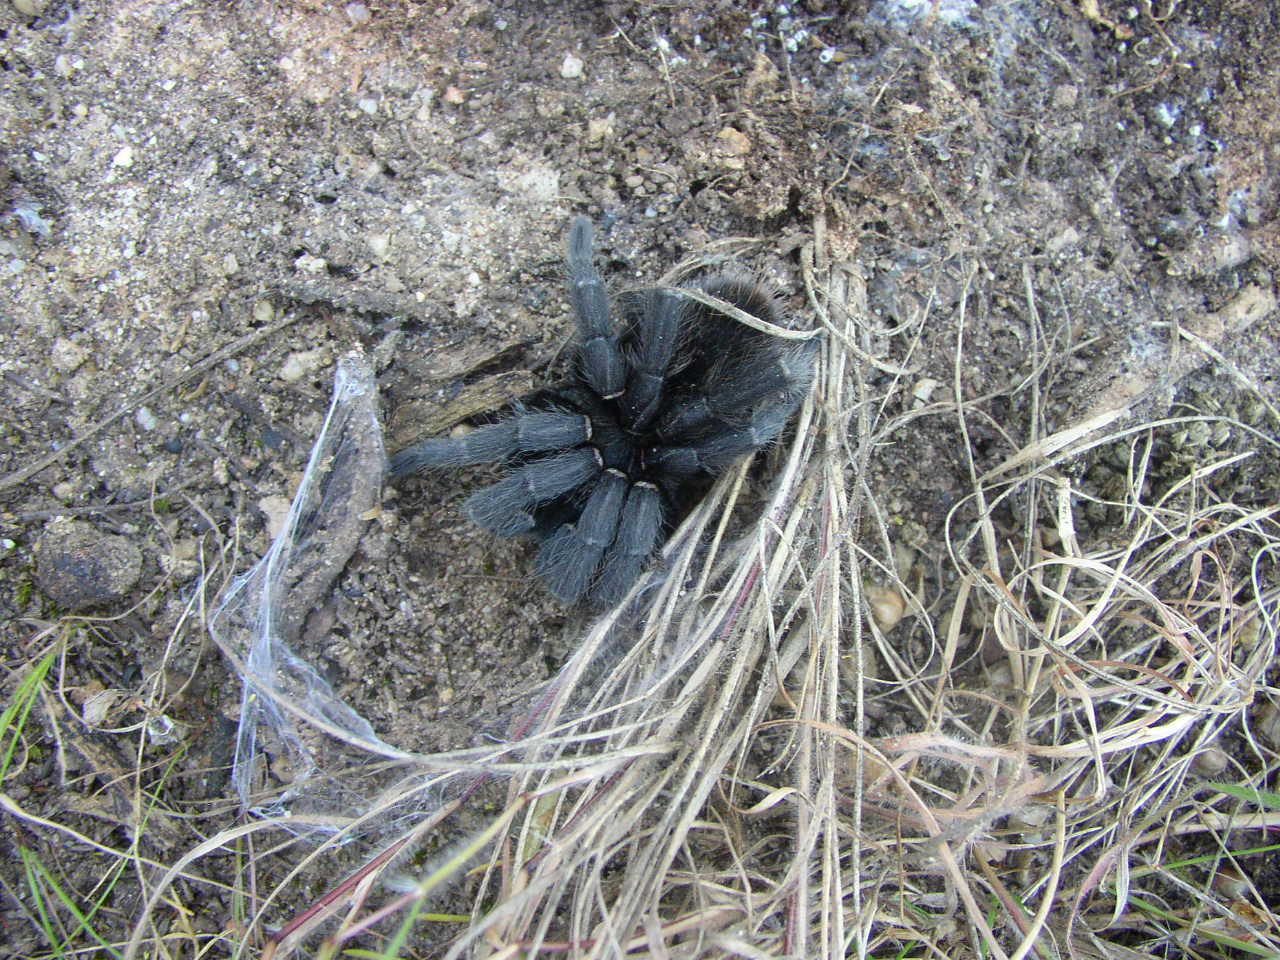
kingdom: Animalia
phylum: Arthropoda
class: Arachnida
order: Araneae
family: Theraphosidae
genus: Harpactira
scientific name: Harpactira atra
